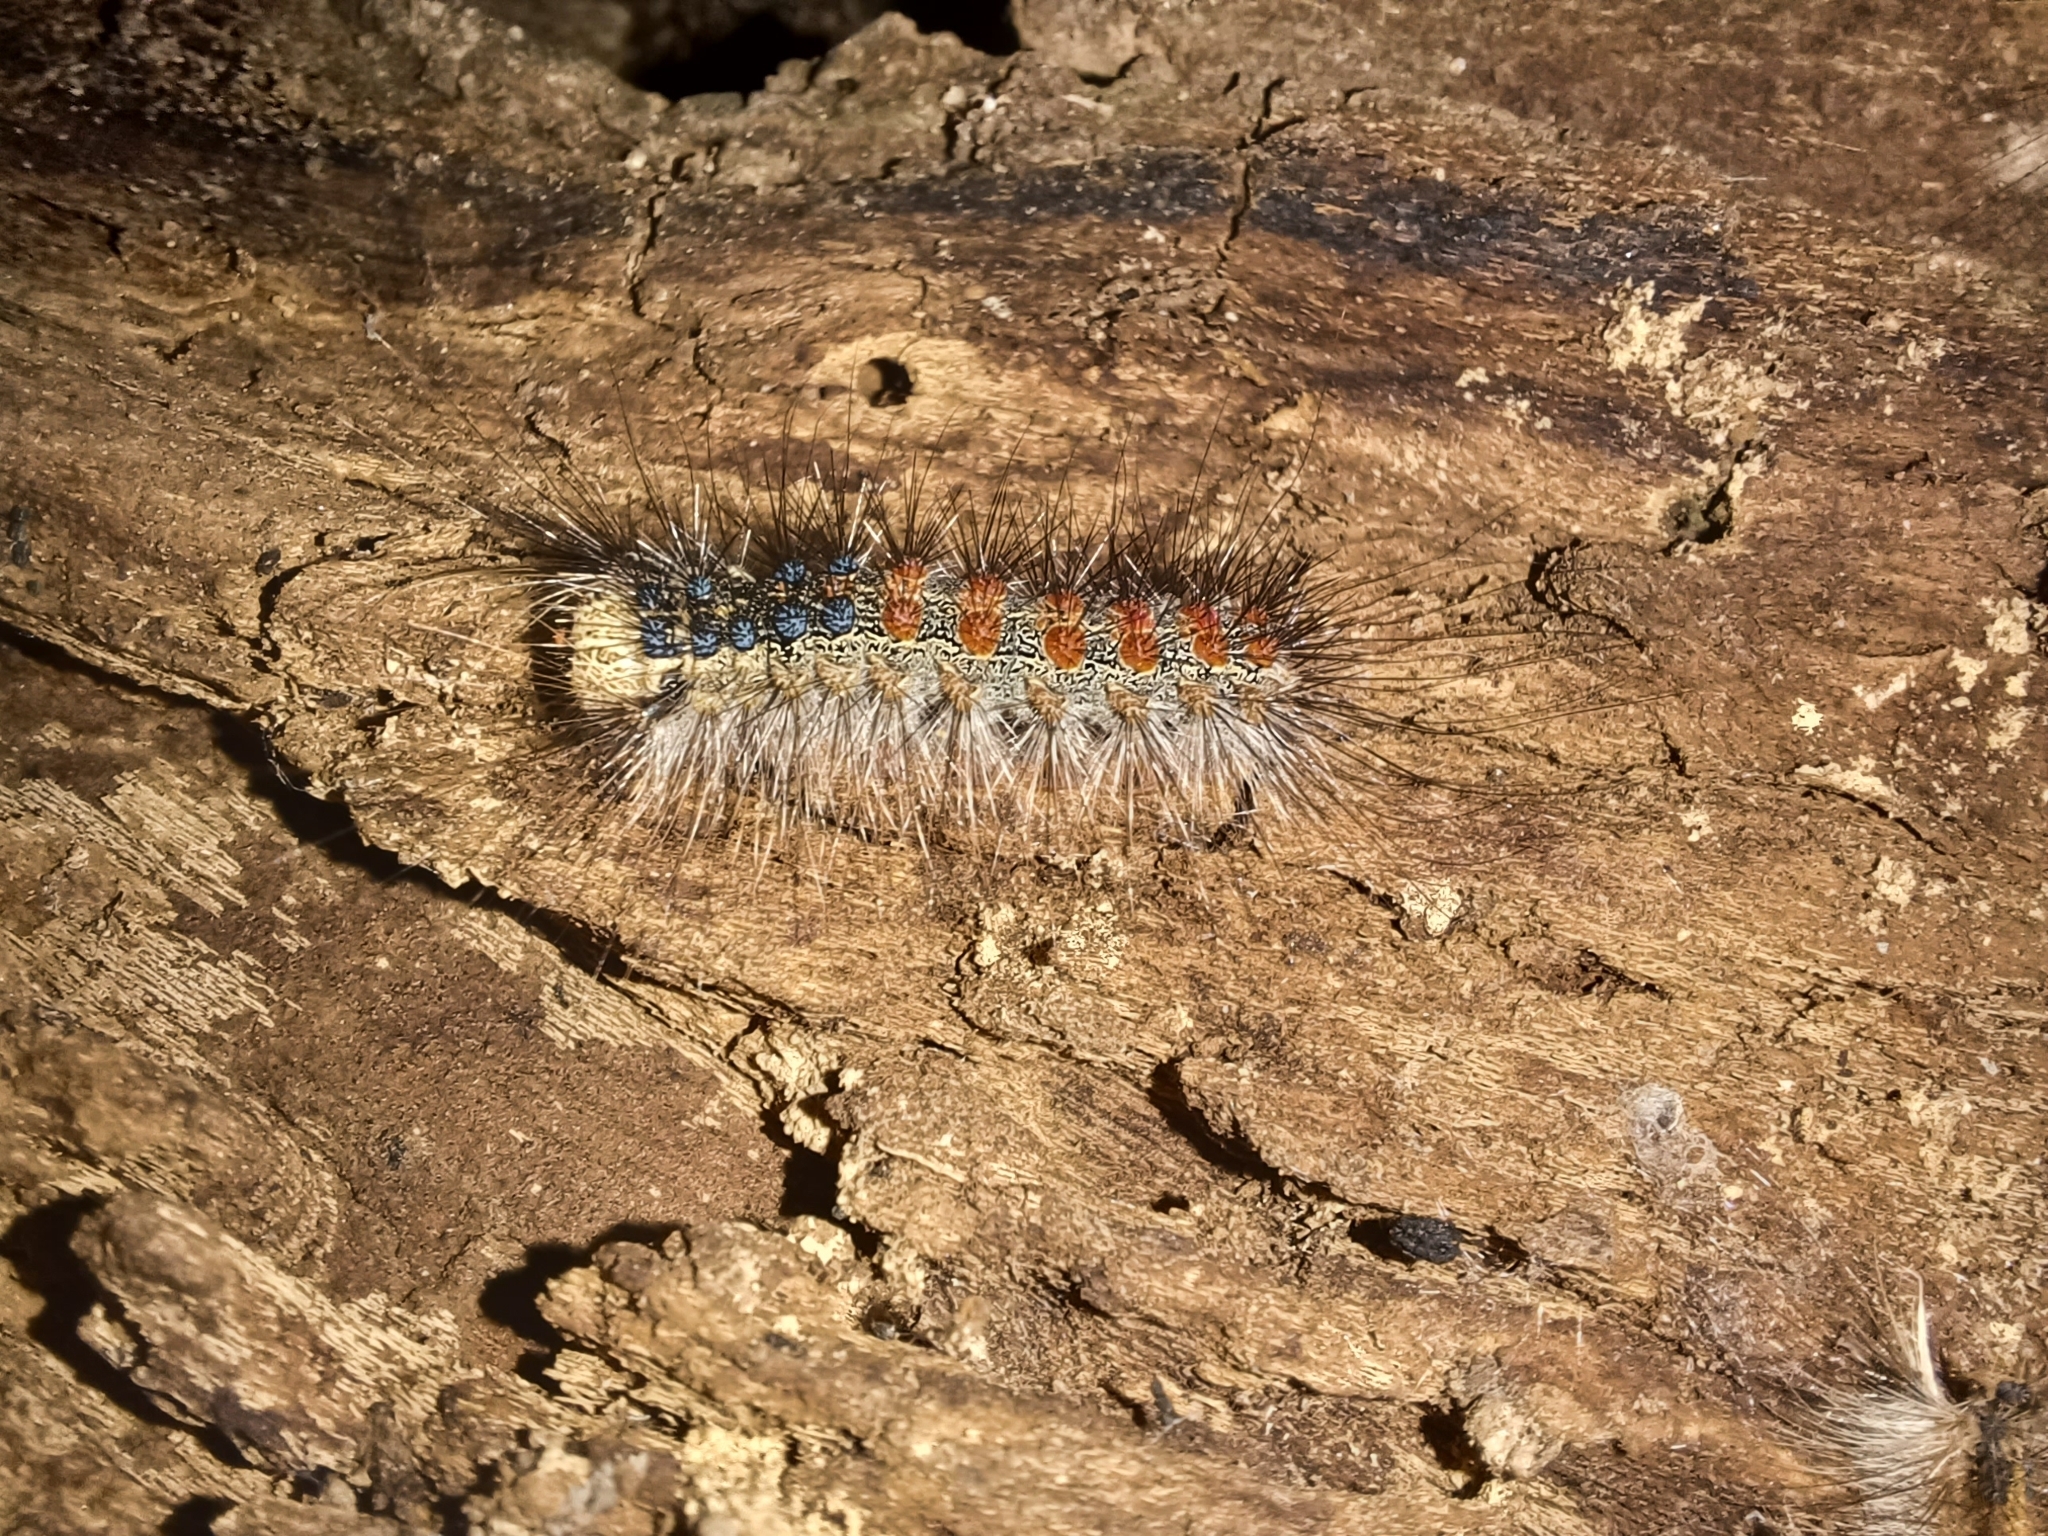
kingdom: Animalia
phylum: Arthropoda
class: Insecta
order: Lepidoptera
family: Erebidae
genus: Lymantria
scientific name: Lymantria dispar
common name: Gypsy moth
